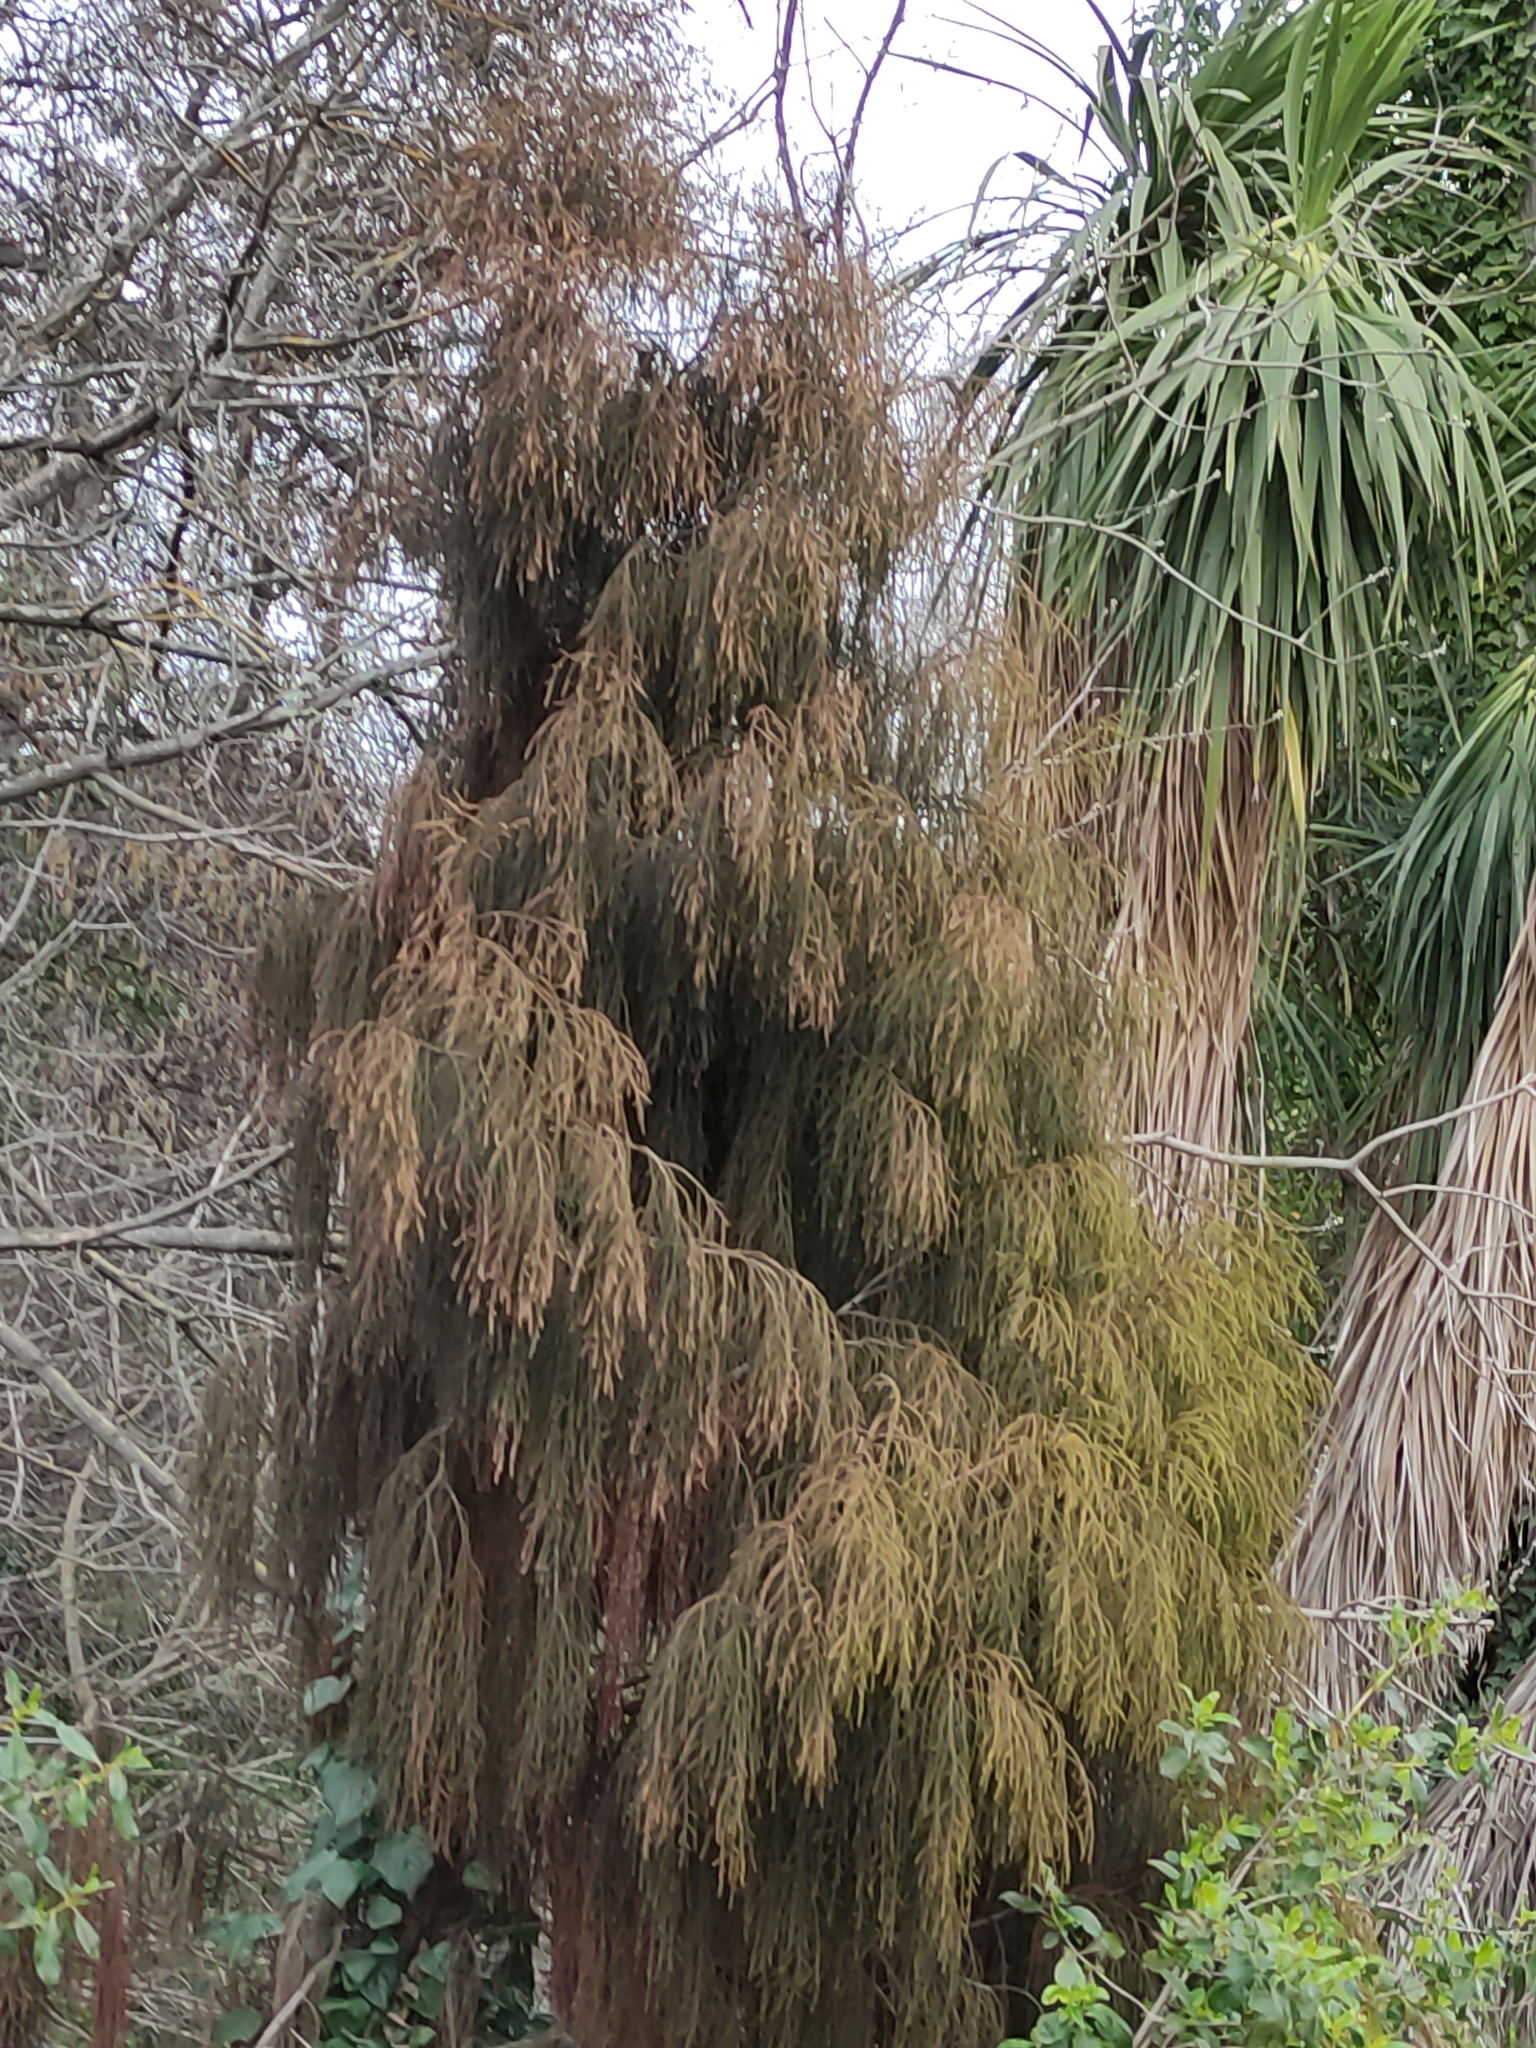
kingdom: Plantae
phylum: Tracheophyta
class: Pinopsida
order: Pinales
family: Podocarpaceae
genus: Dacrydium
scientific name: Dacrydium cupressinum
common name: Red pine
